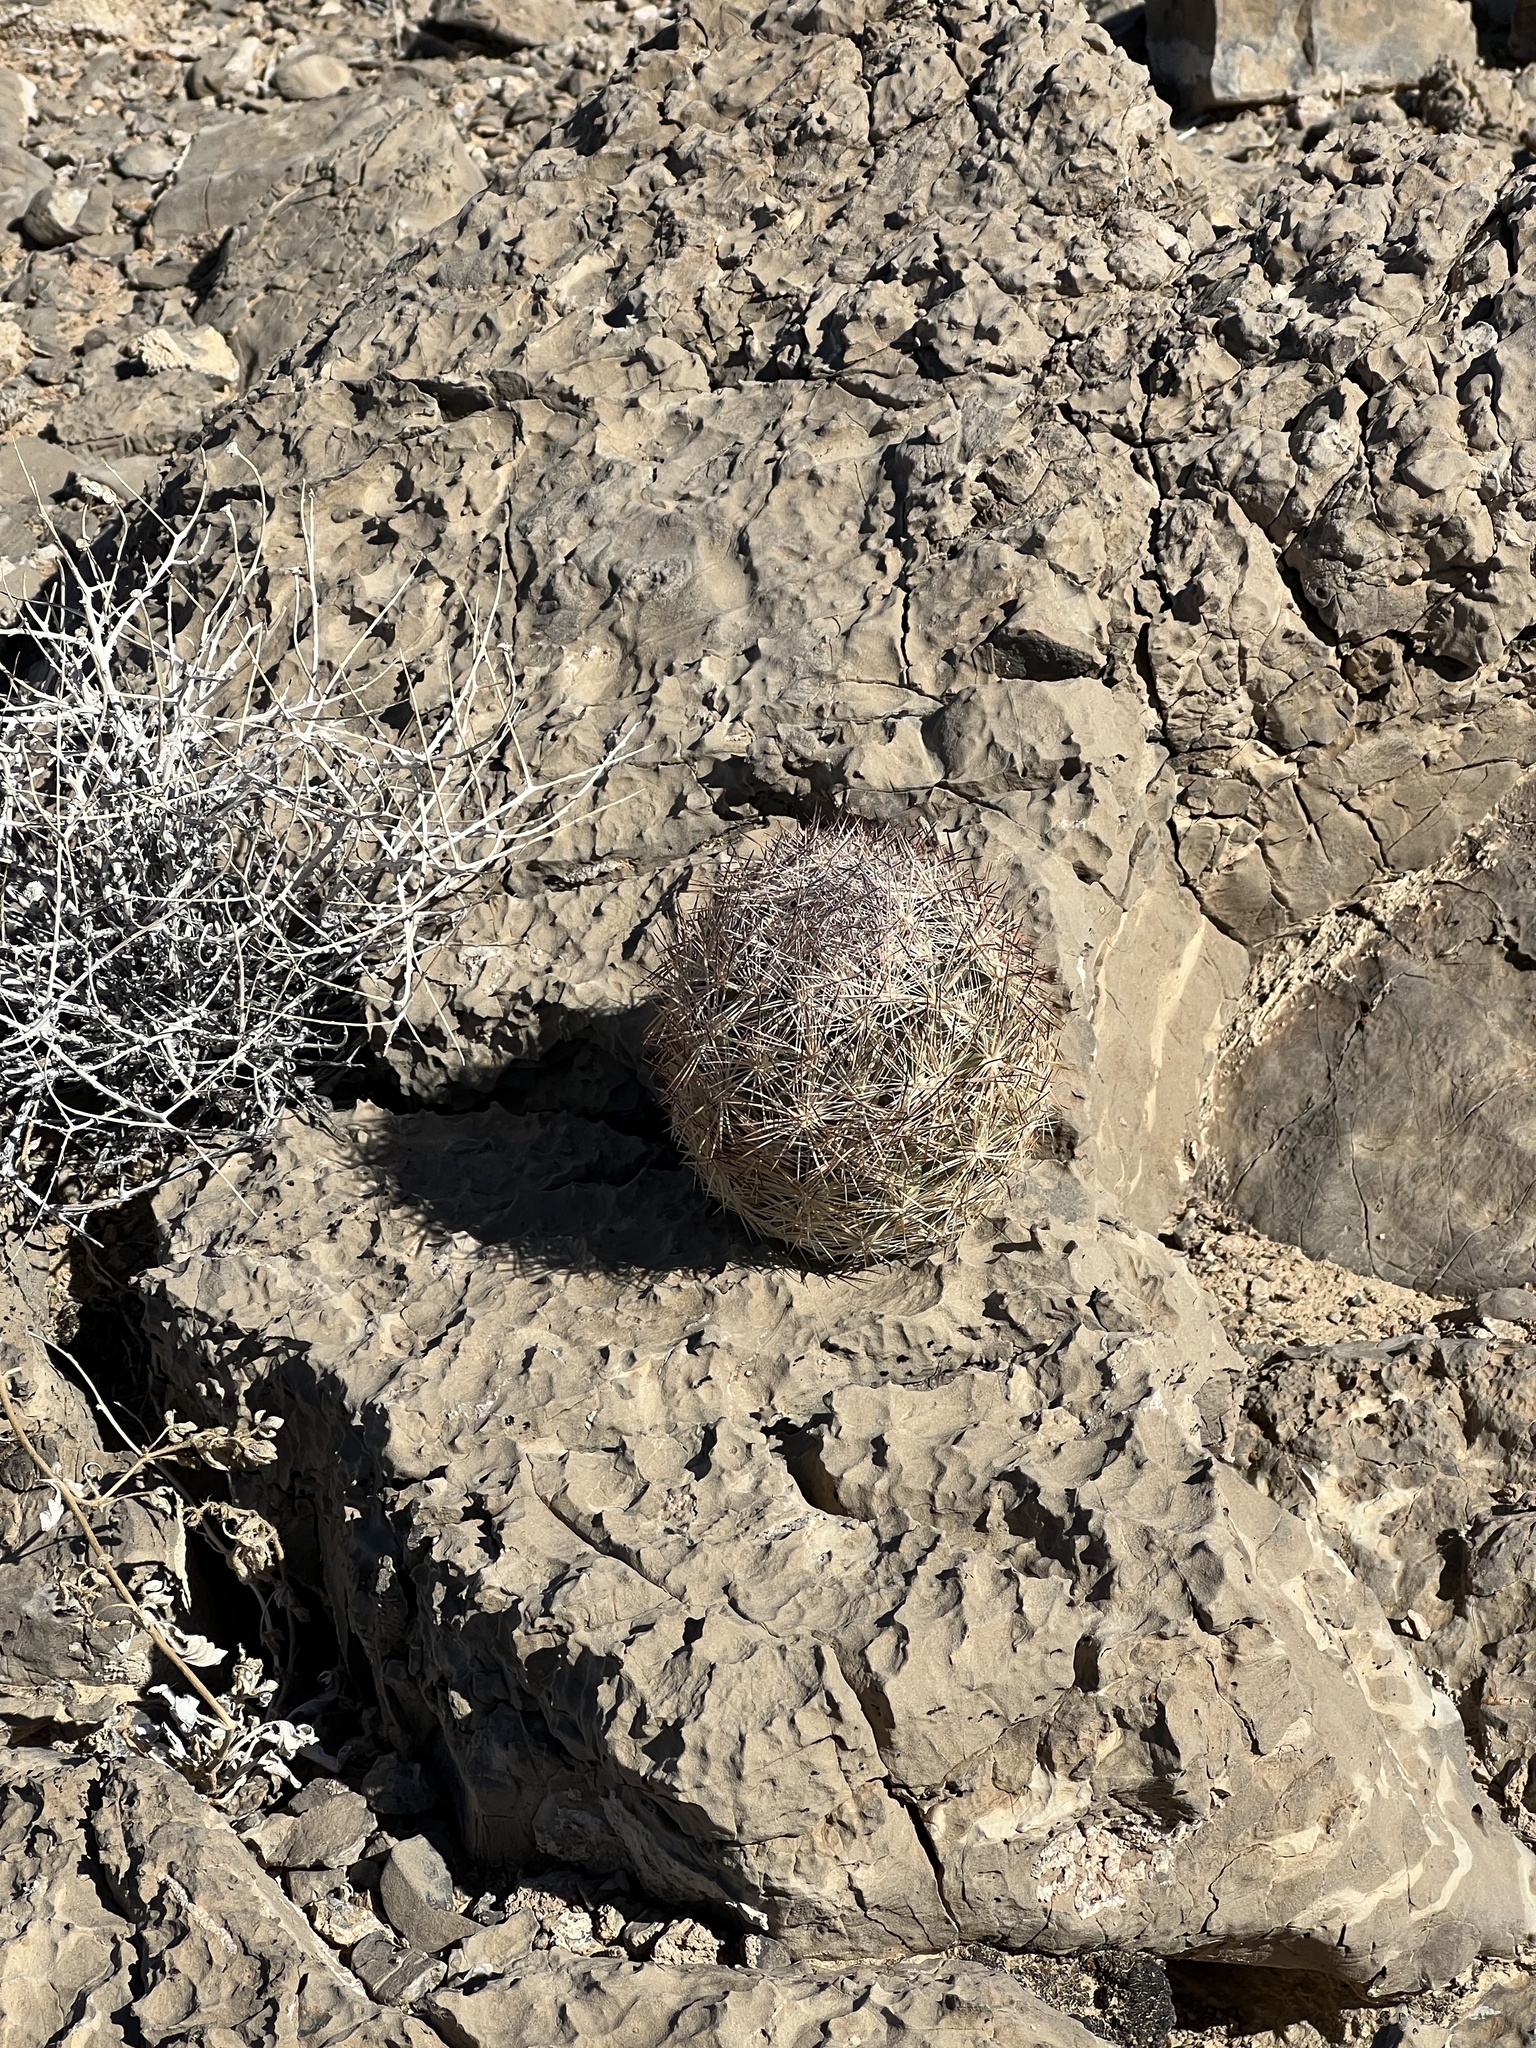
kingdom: Plantae
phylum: Tracheophyta
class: Magnoliopsida
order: Caryophyllales
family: Cactaceae
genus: Pelecyphora
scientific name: Pelecyphora dasyacantha
